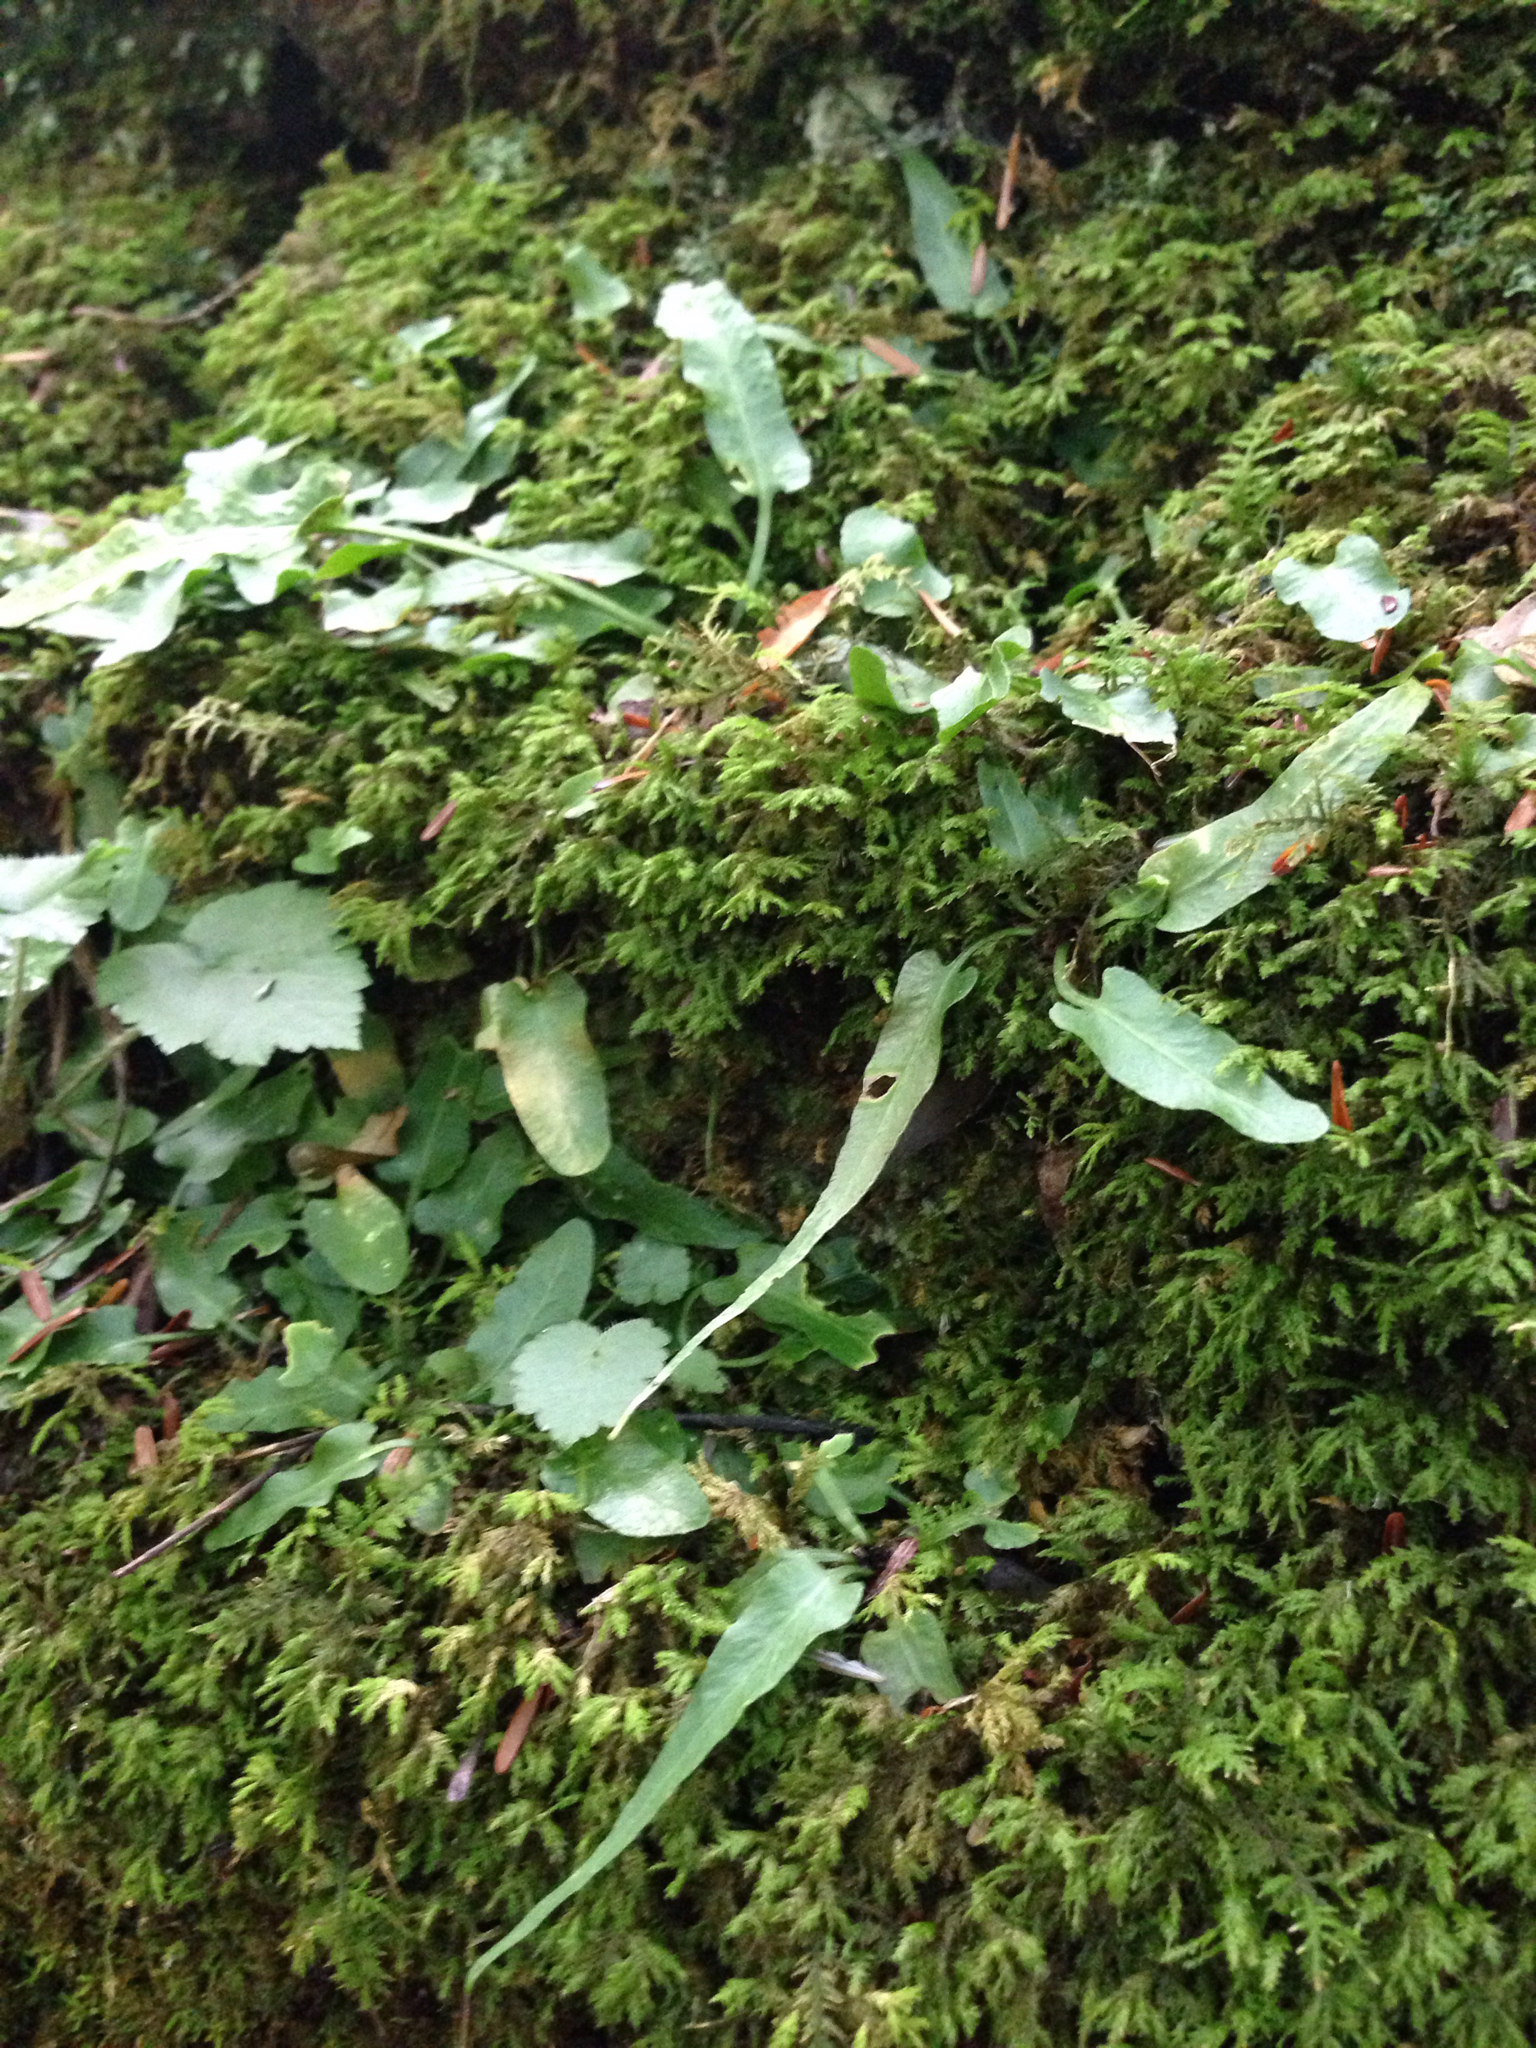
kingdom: Plantae
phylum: Tracheophyta
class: Polypodiopsida
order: Polypodiales
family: Aspleniaceae
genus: Asplenium
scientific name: Asplenium rhizophyllum
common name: Walking fern
